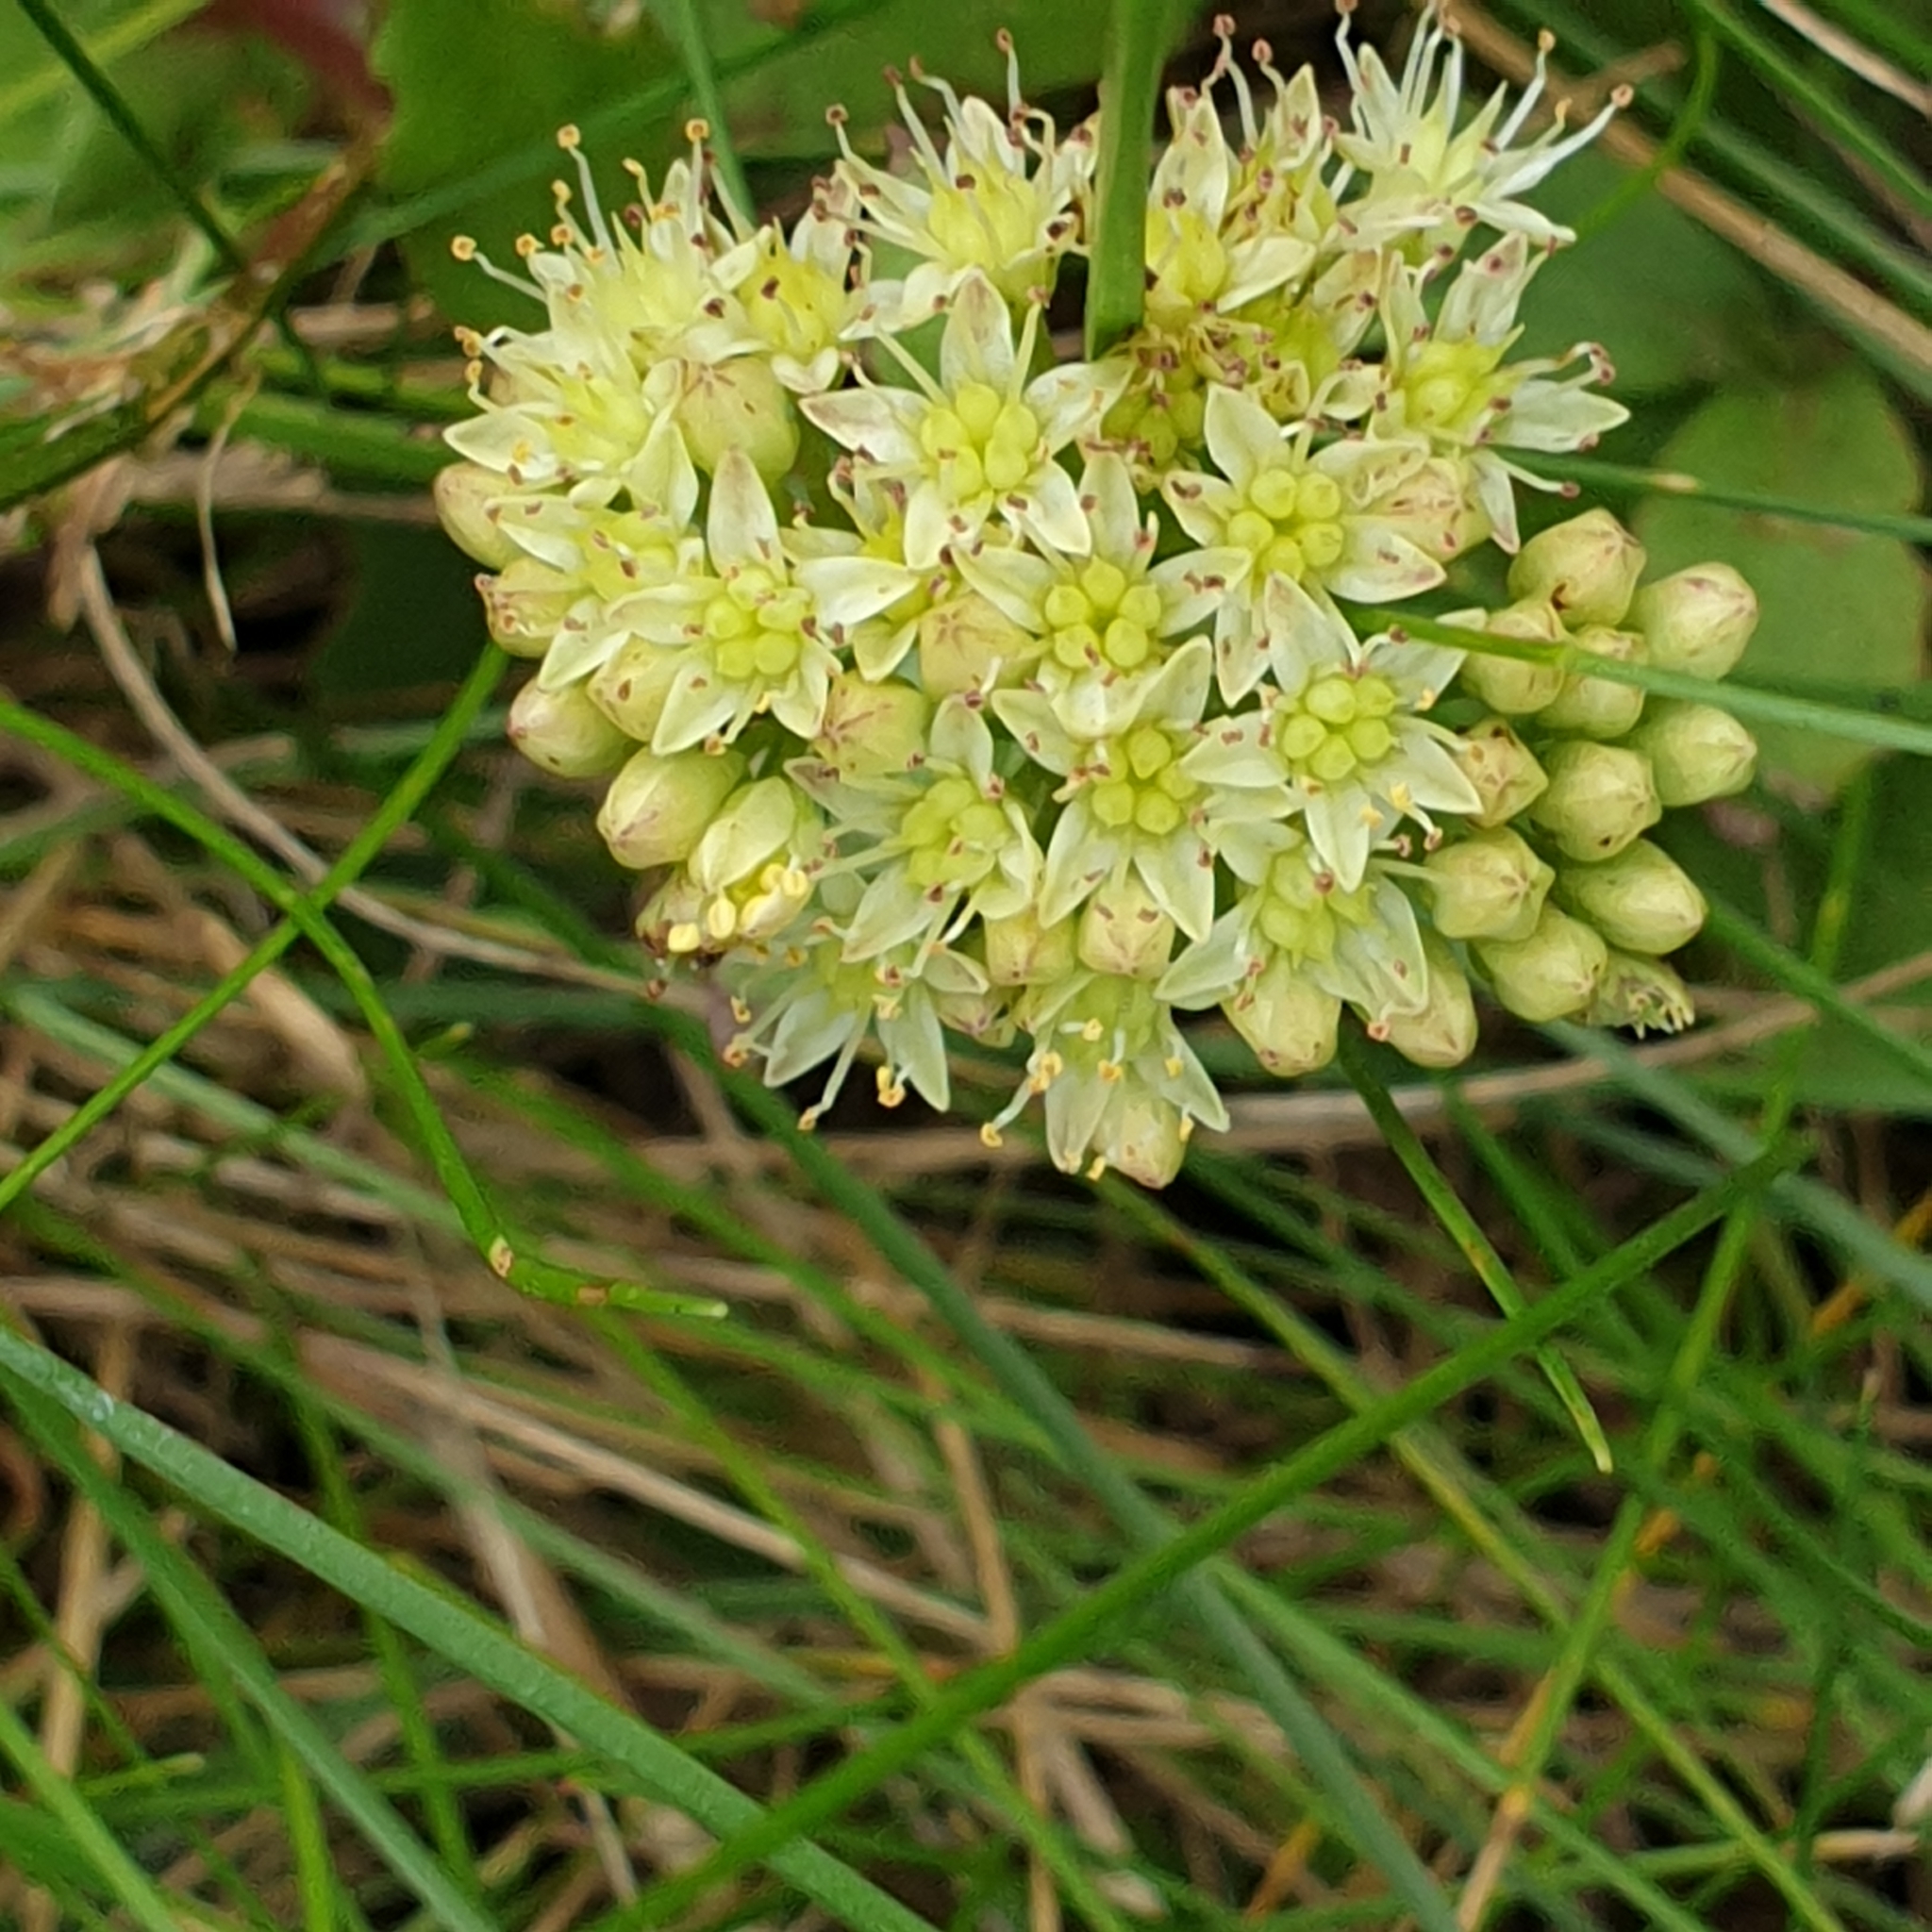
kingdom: Plantae
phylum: Tracheophyta
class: Magnoliopsida
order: Saxifragales
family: Crassulaceae
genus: Hylotelephium
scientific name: Hylotelephium maximum
